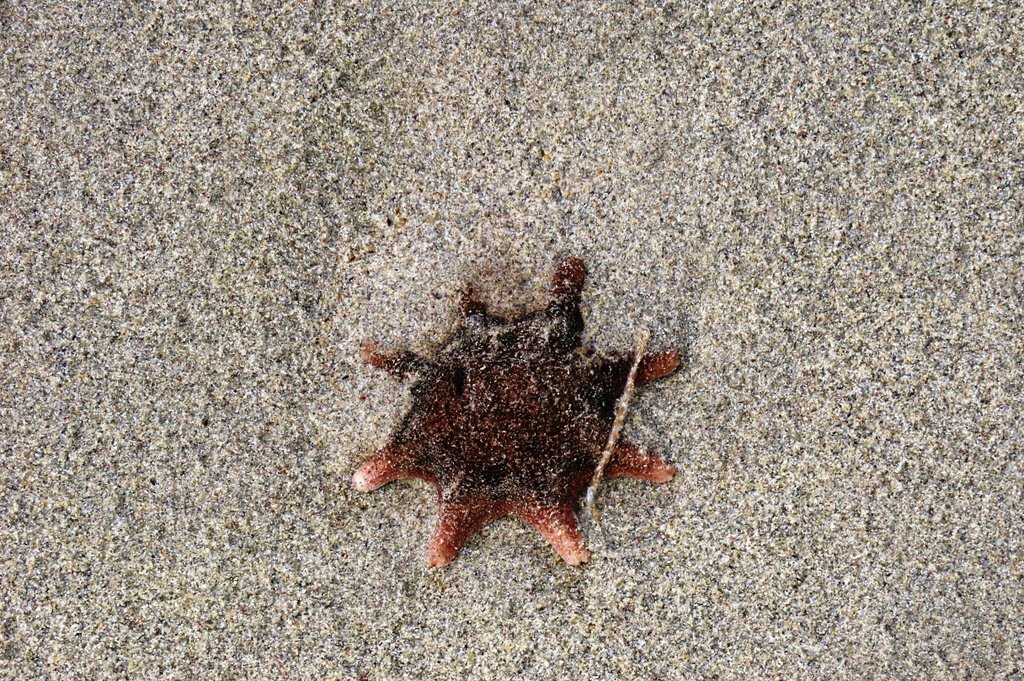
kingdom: Animalia
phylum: Echinodermata
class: Asteroidea
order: Valvatida
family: Asterinidae
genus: Meridiastra
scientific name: Meridiastra calcar
